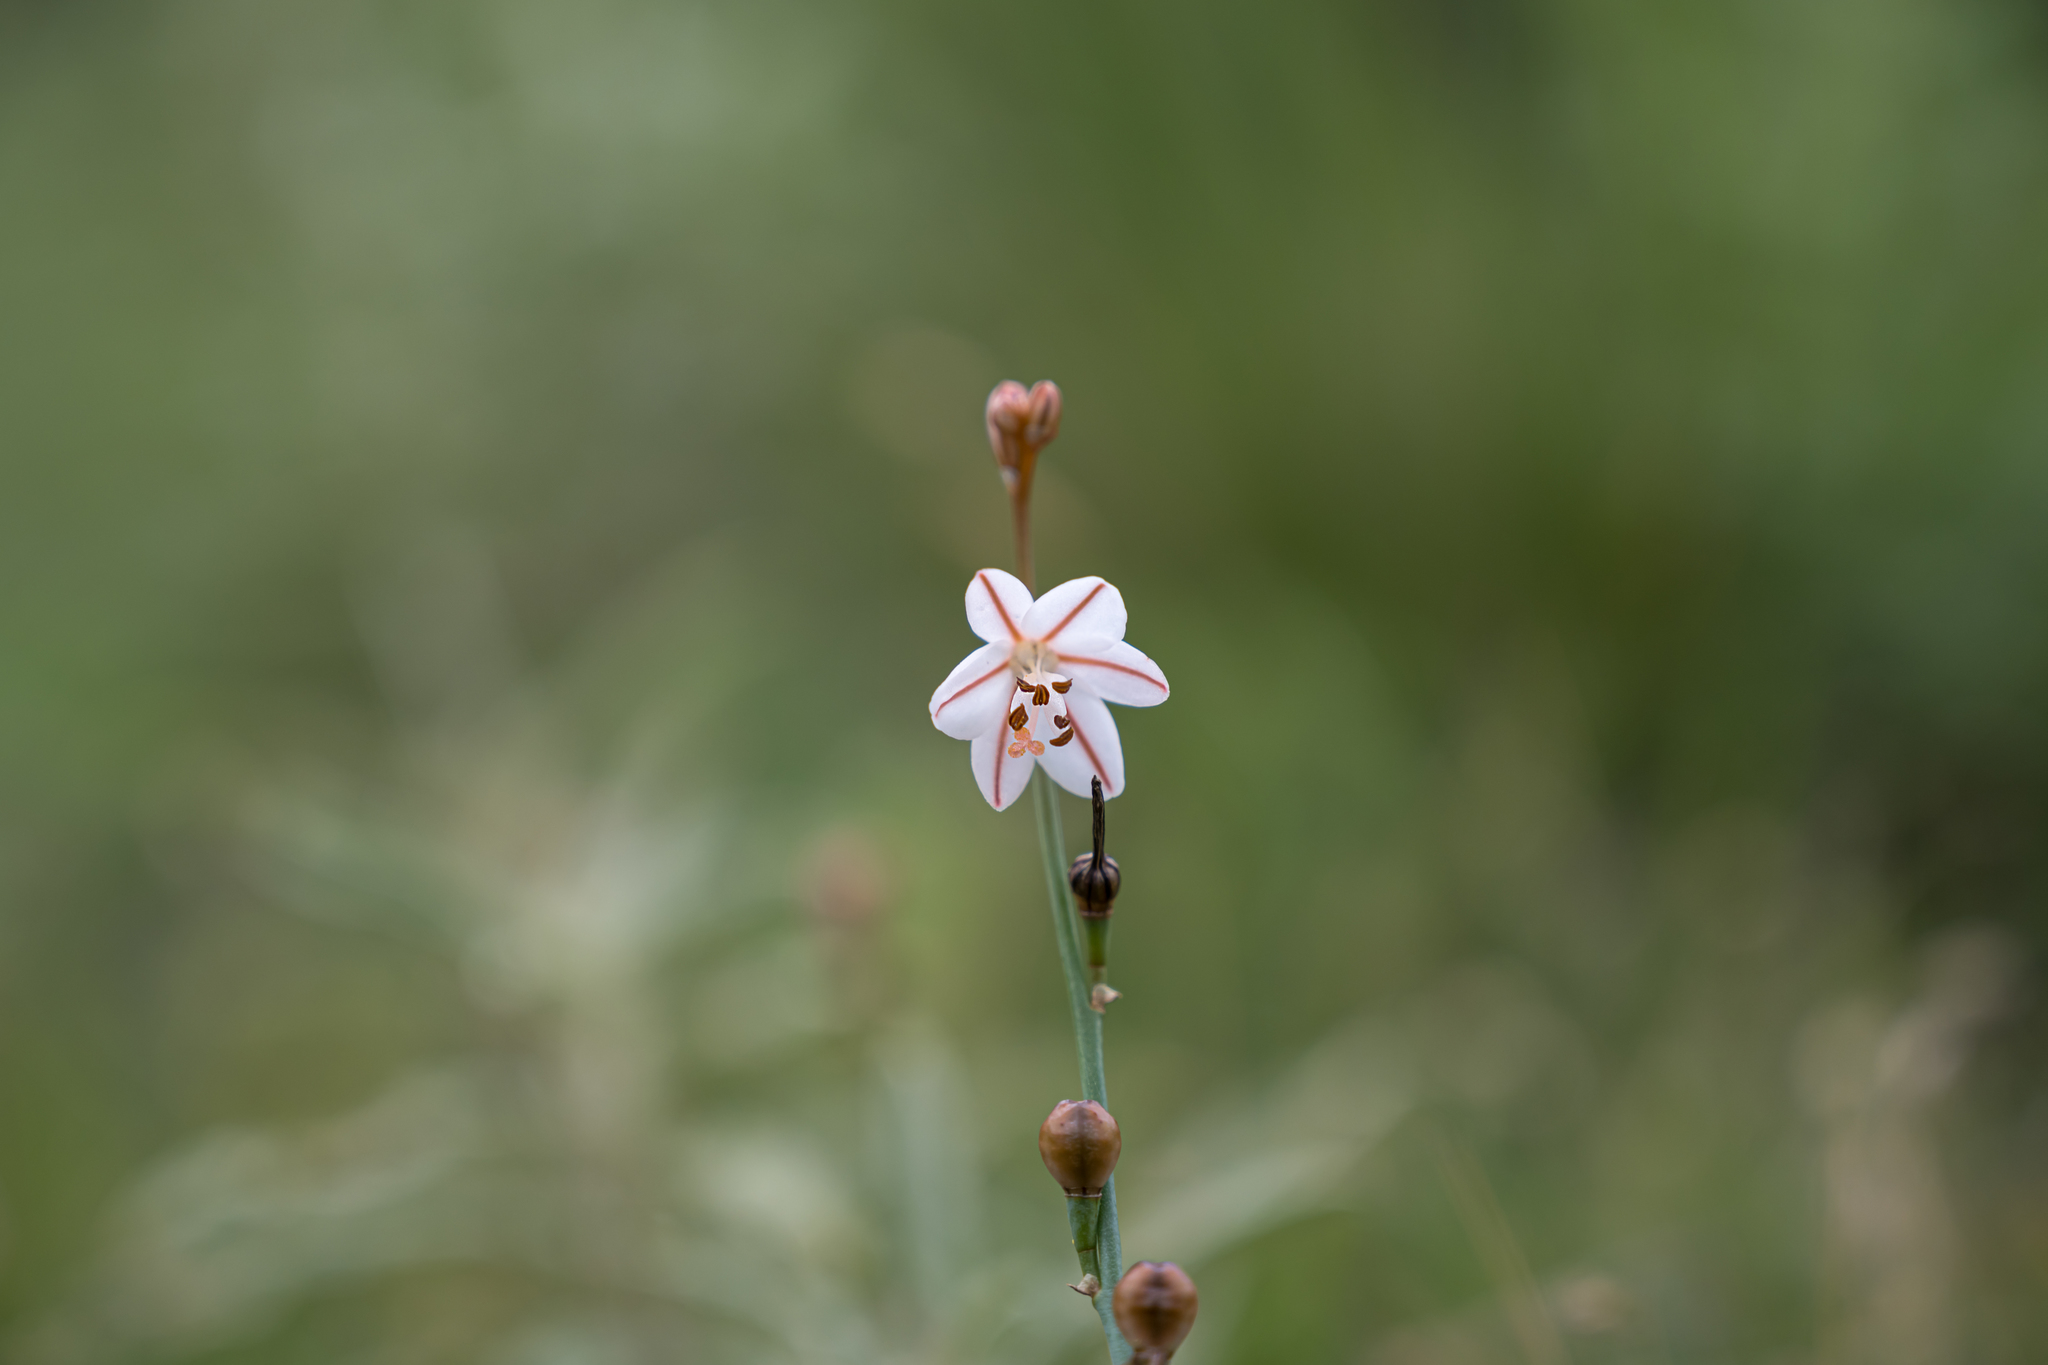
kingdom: Plantae
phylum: Tracheophyta
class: Liliopsida
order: Asparagales
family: Asphodelaceae
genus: Asphodelus
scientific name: Asphodelus fistulosus
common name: Onionweed
